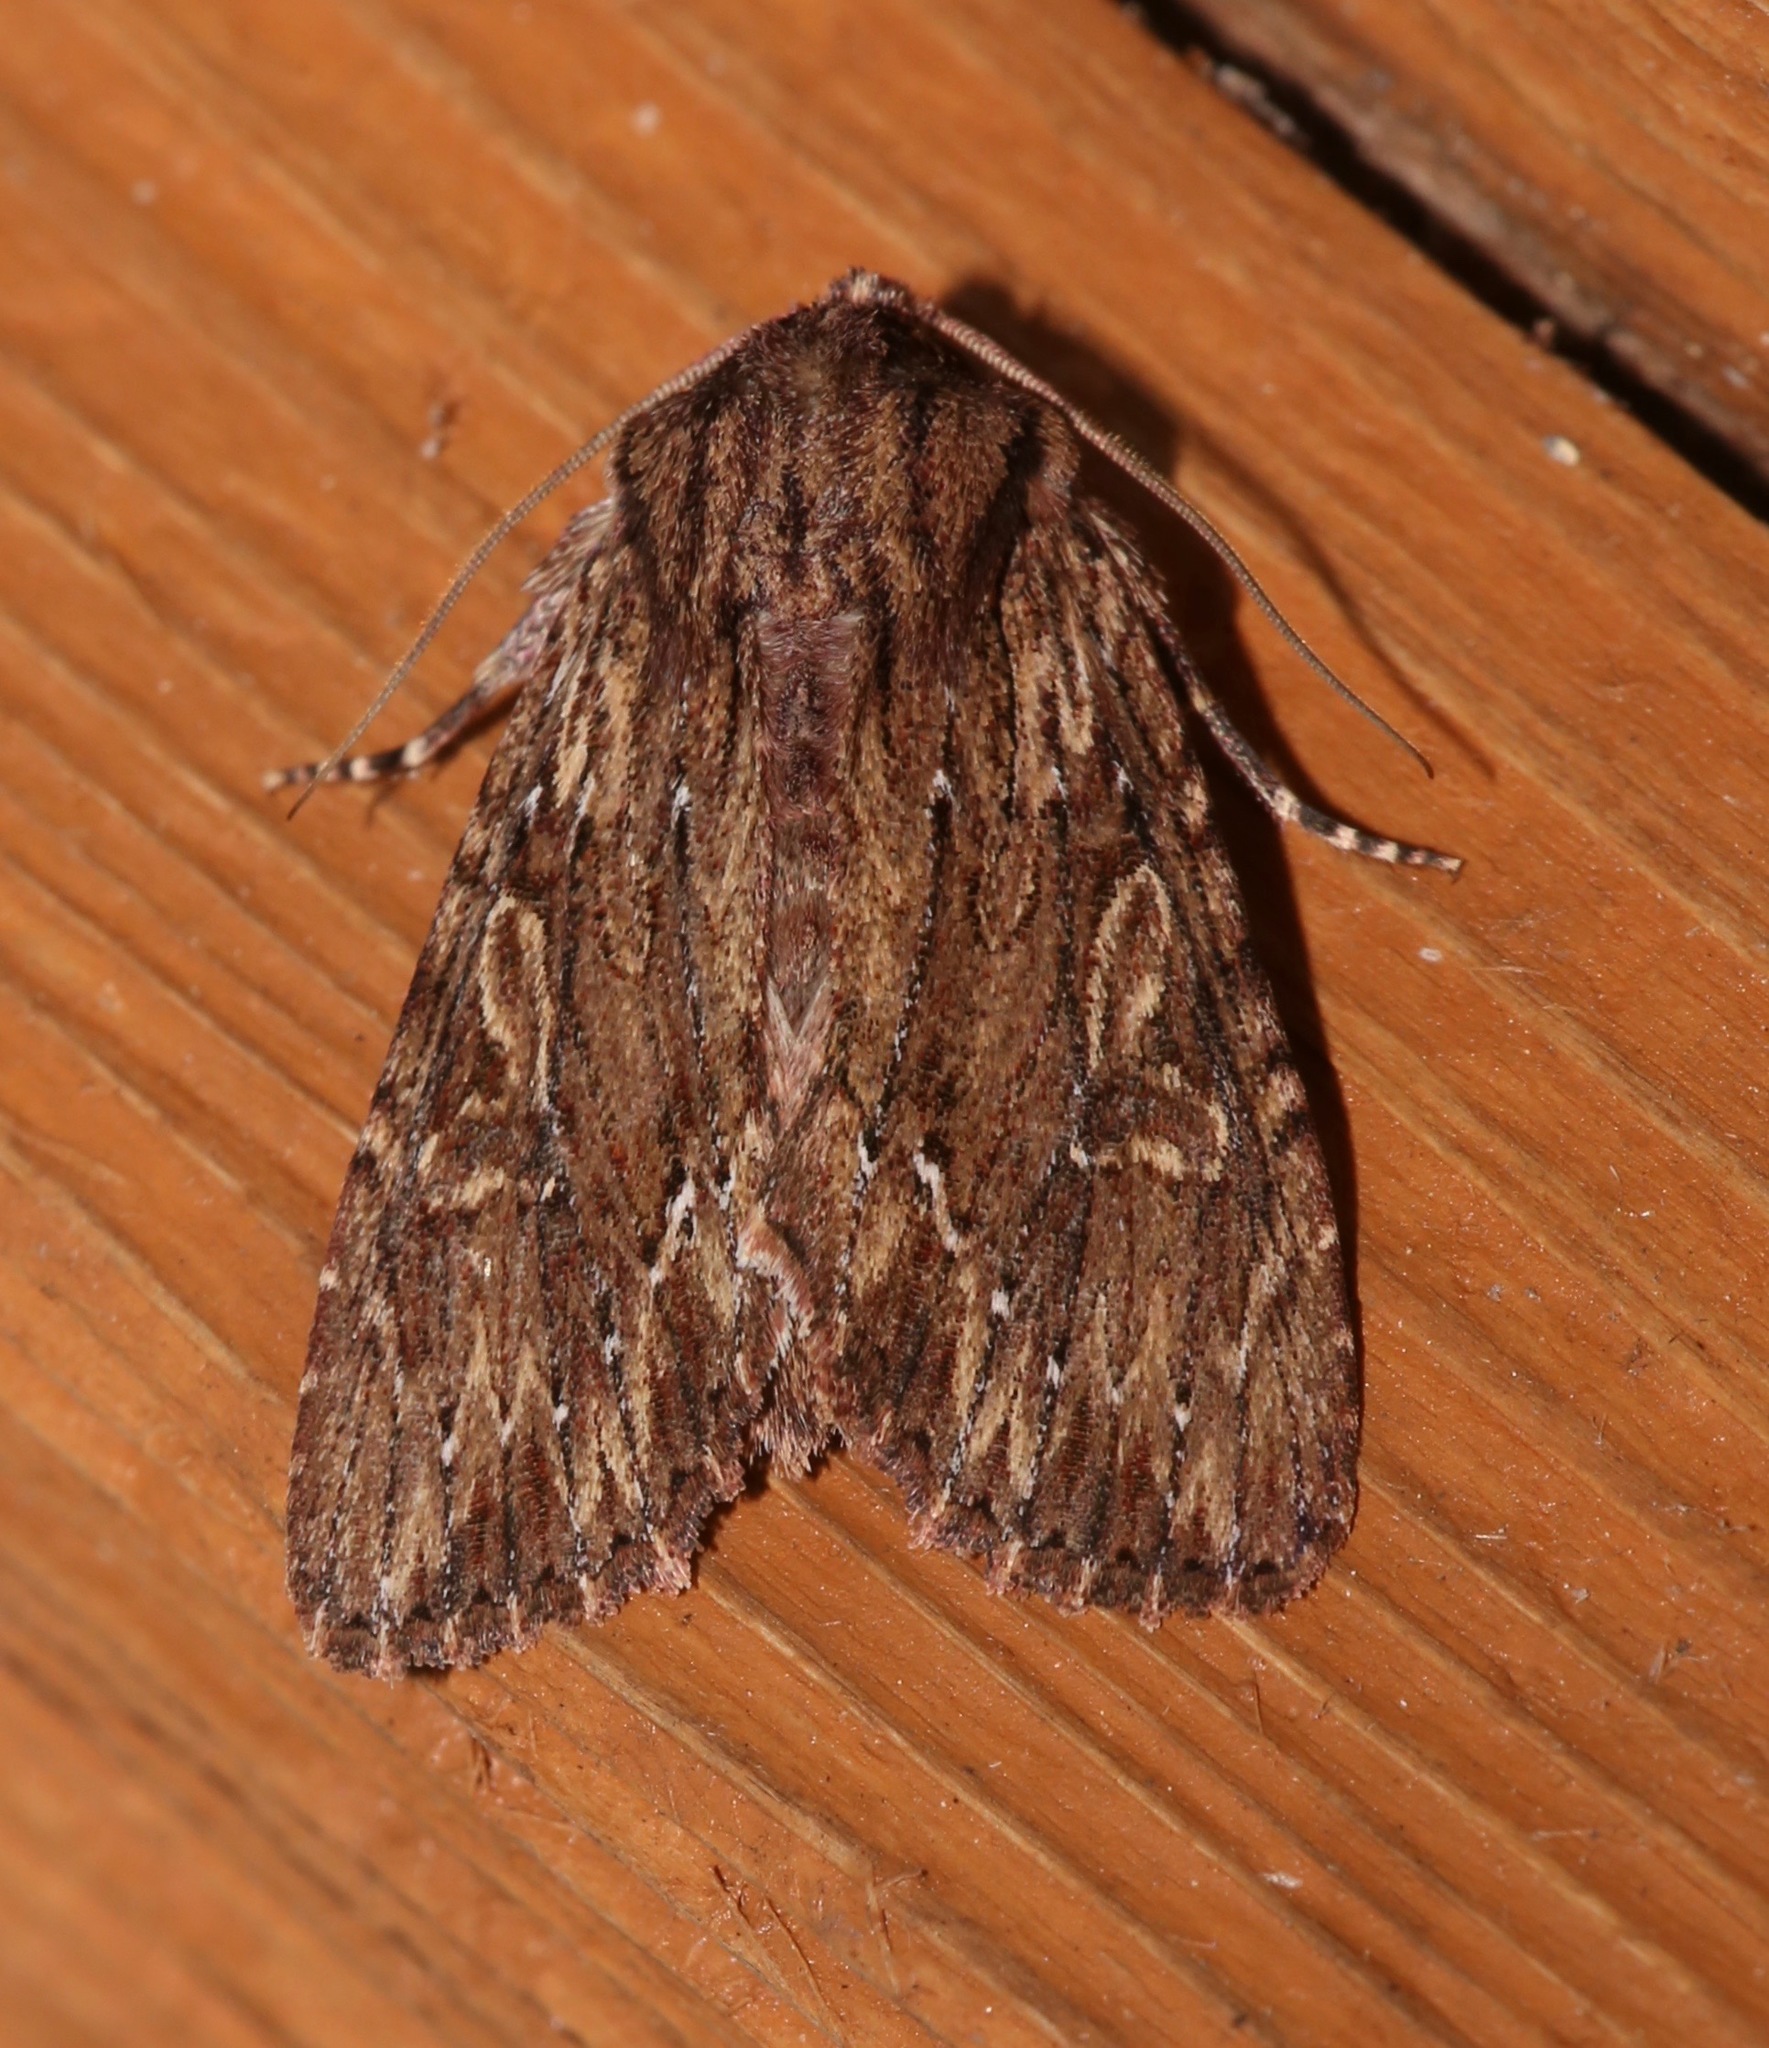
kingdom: Animalia
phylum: Arthropoda
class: Insecta
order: Lepidoptera
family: Noctuidae
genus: Achatia
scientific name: Achatia confusa
